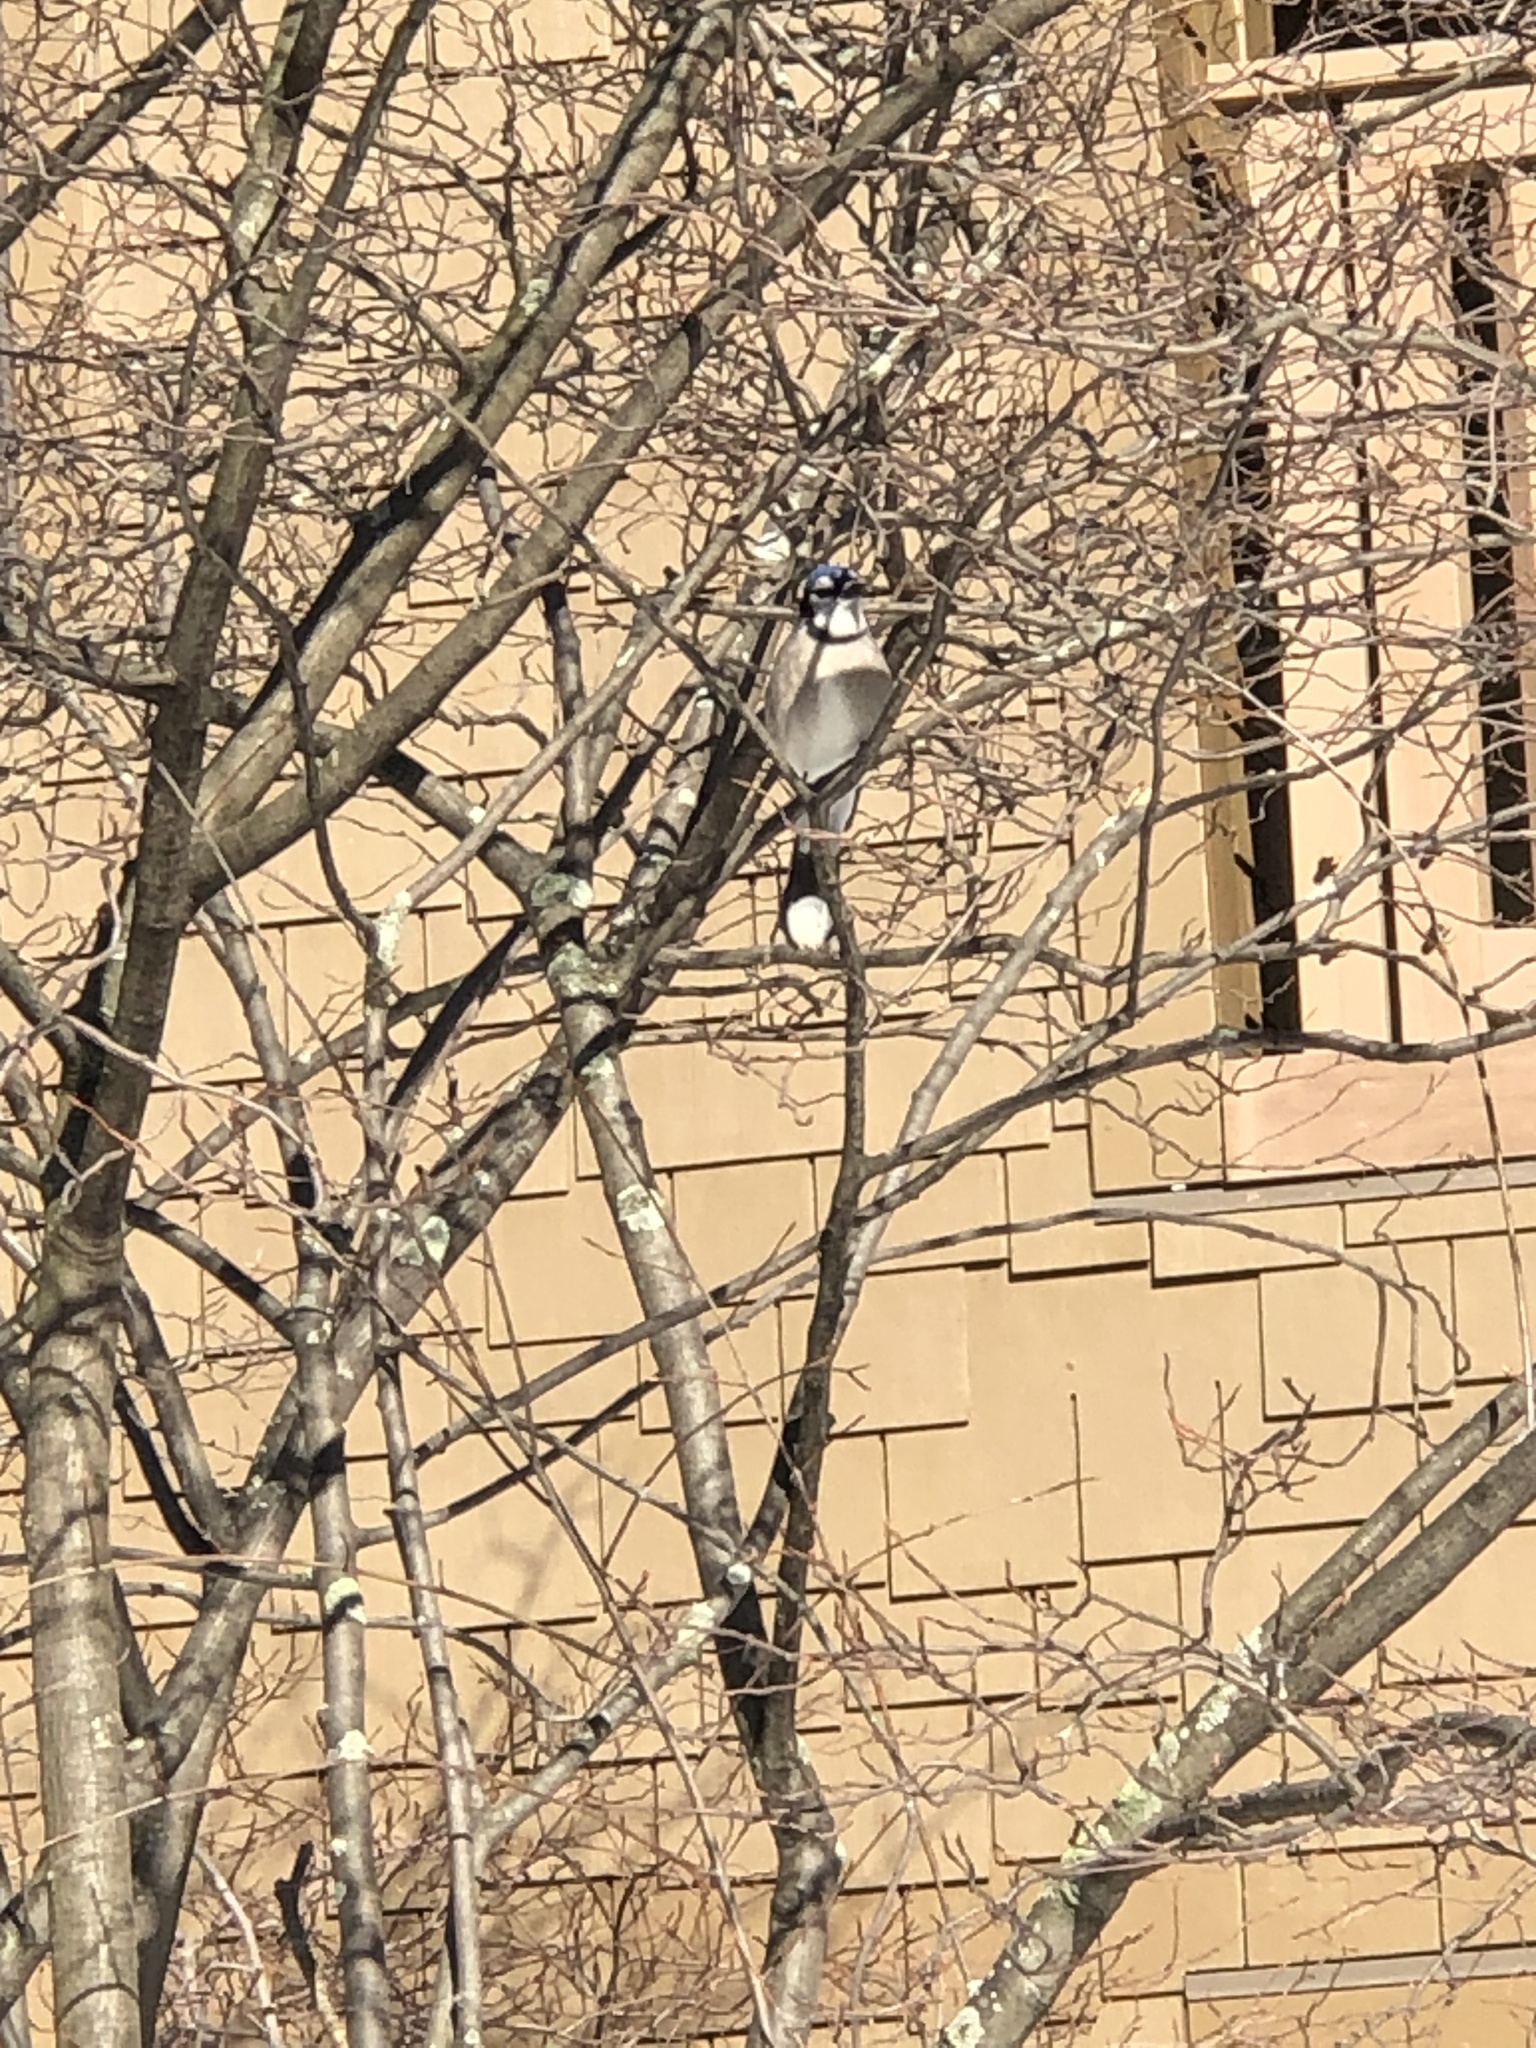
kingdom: Animalia
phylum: Chordata
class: Aves
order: Passeriformes
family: Corvidae
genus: Cyanocitta
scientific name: Cyanocitta cristata
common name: Blue jay
